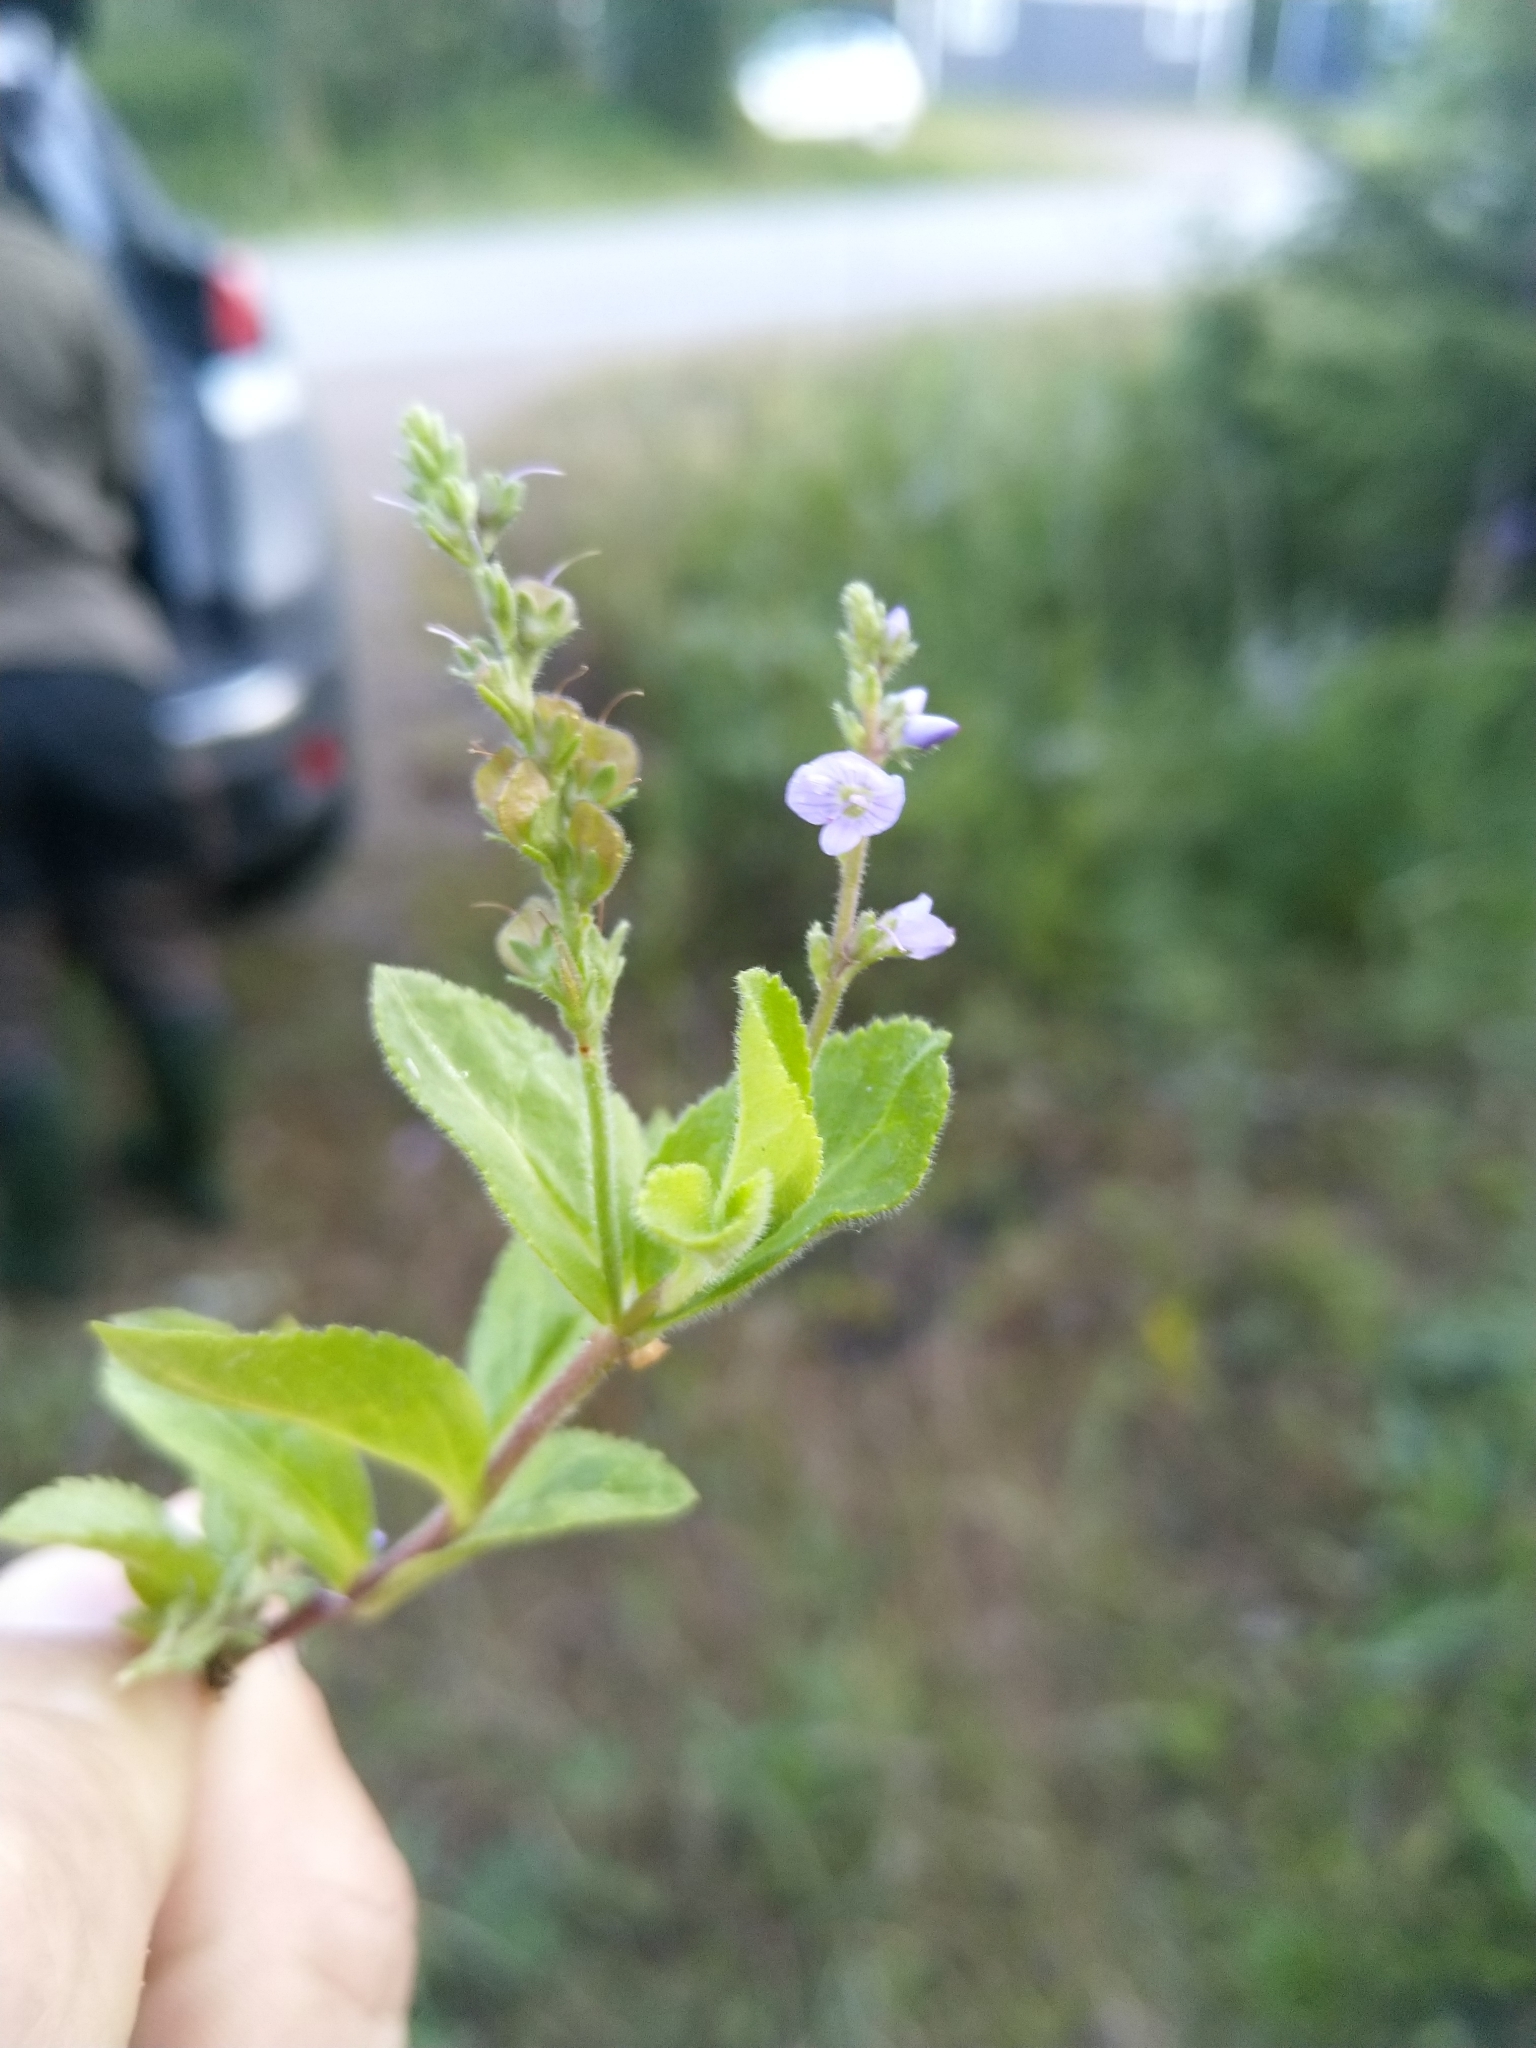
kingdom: Plantae
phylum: Tracheophyta
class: Magnoliopsida
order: Lamiales
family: Plantaginaceae
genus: Veronica
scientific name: Veronica officinalis
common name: Common speedwell
